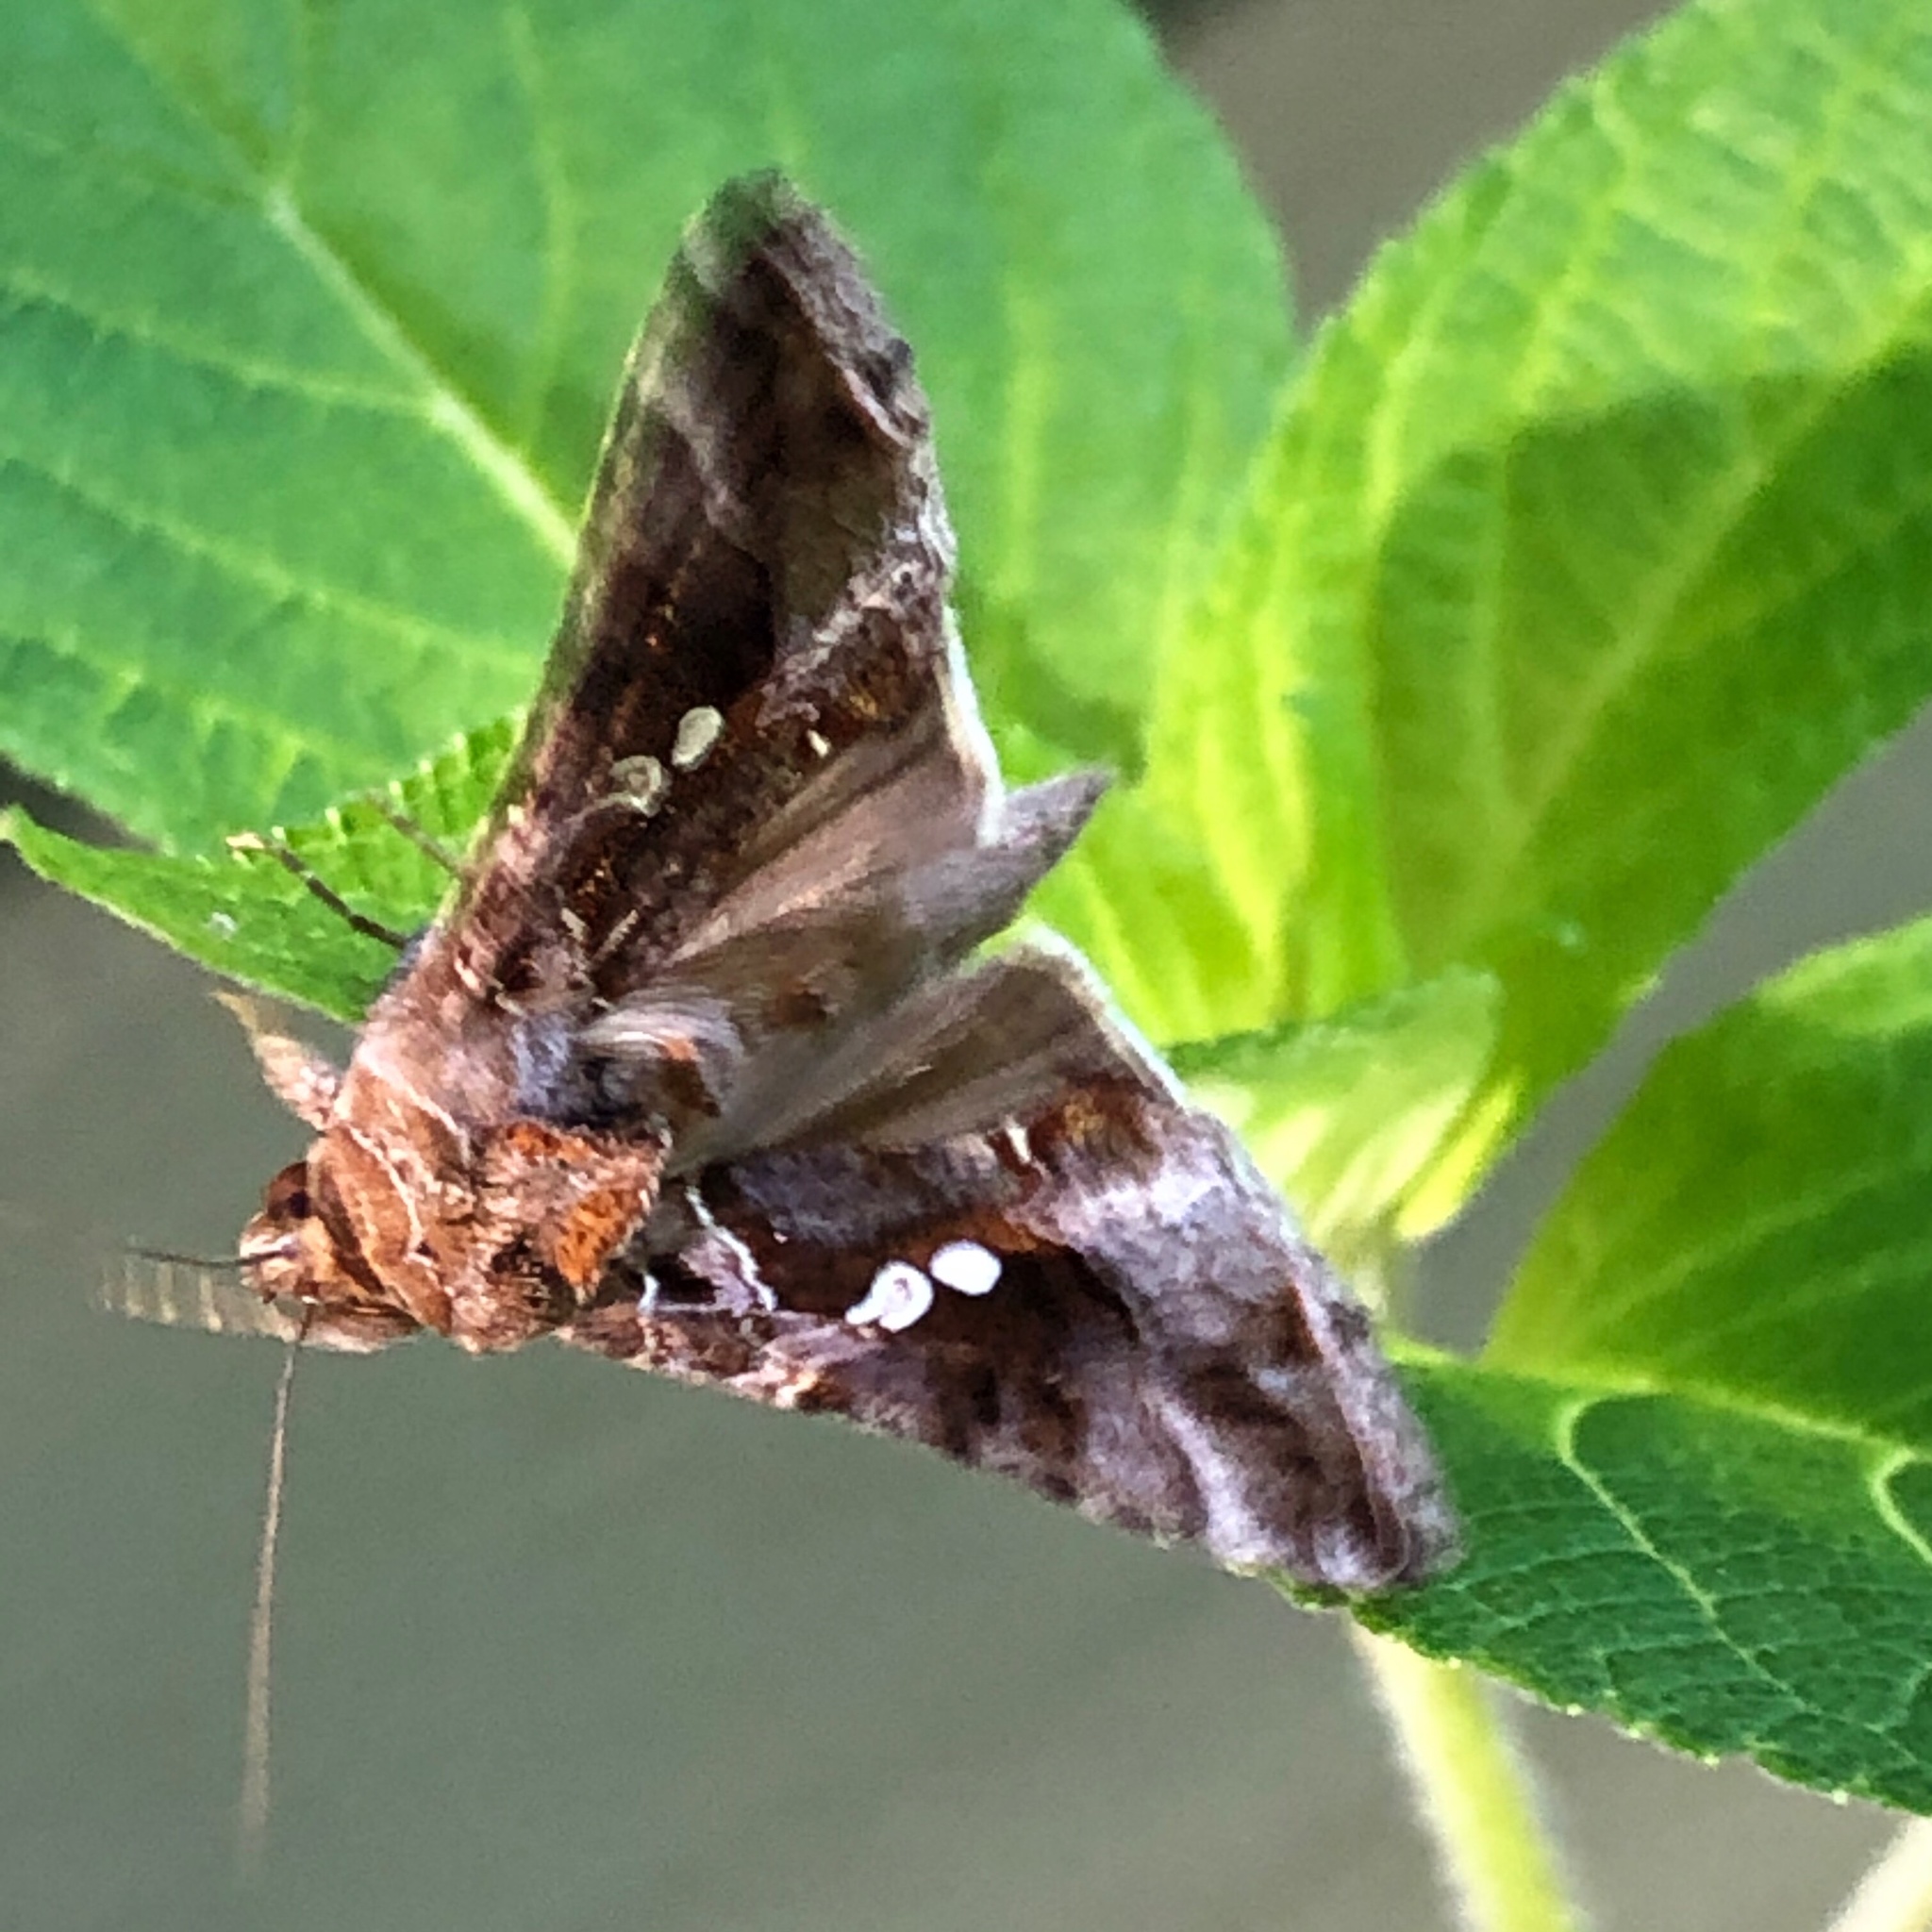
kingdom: Animalia
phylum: Arthropoda
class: Insecta
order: Lepidoptera
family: Noctuidae
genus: Chrysodeixis
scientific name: Chrysodeixis includens
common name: Cutworm moth
